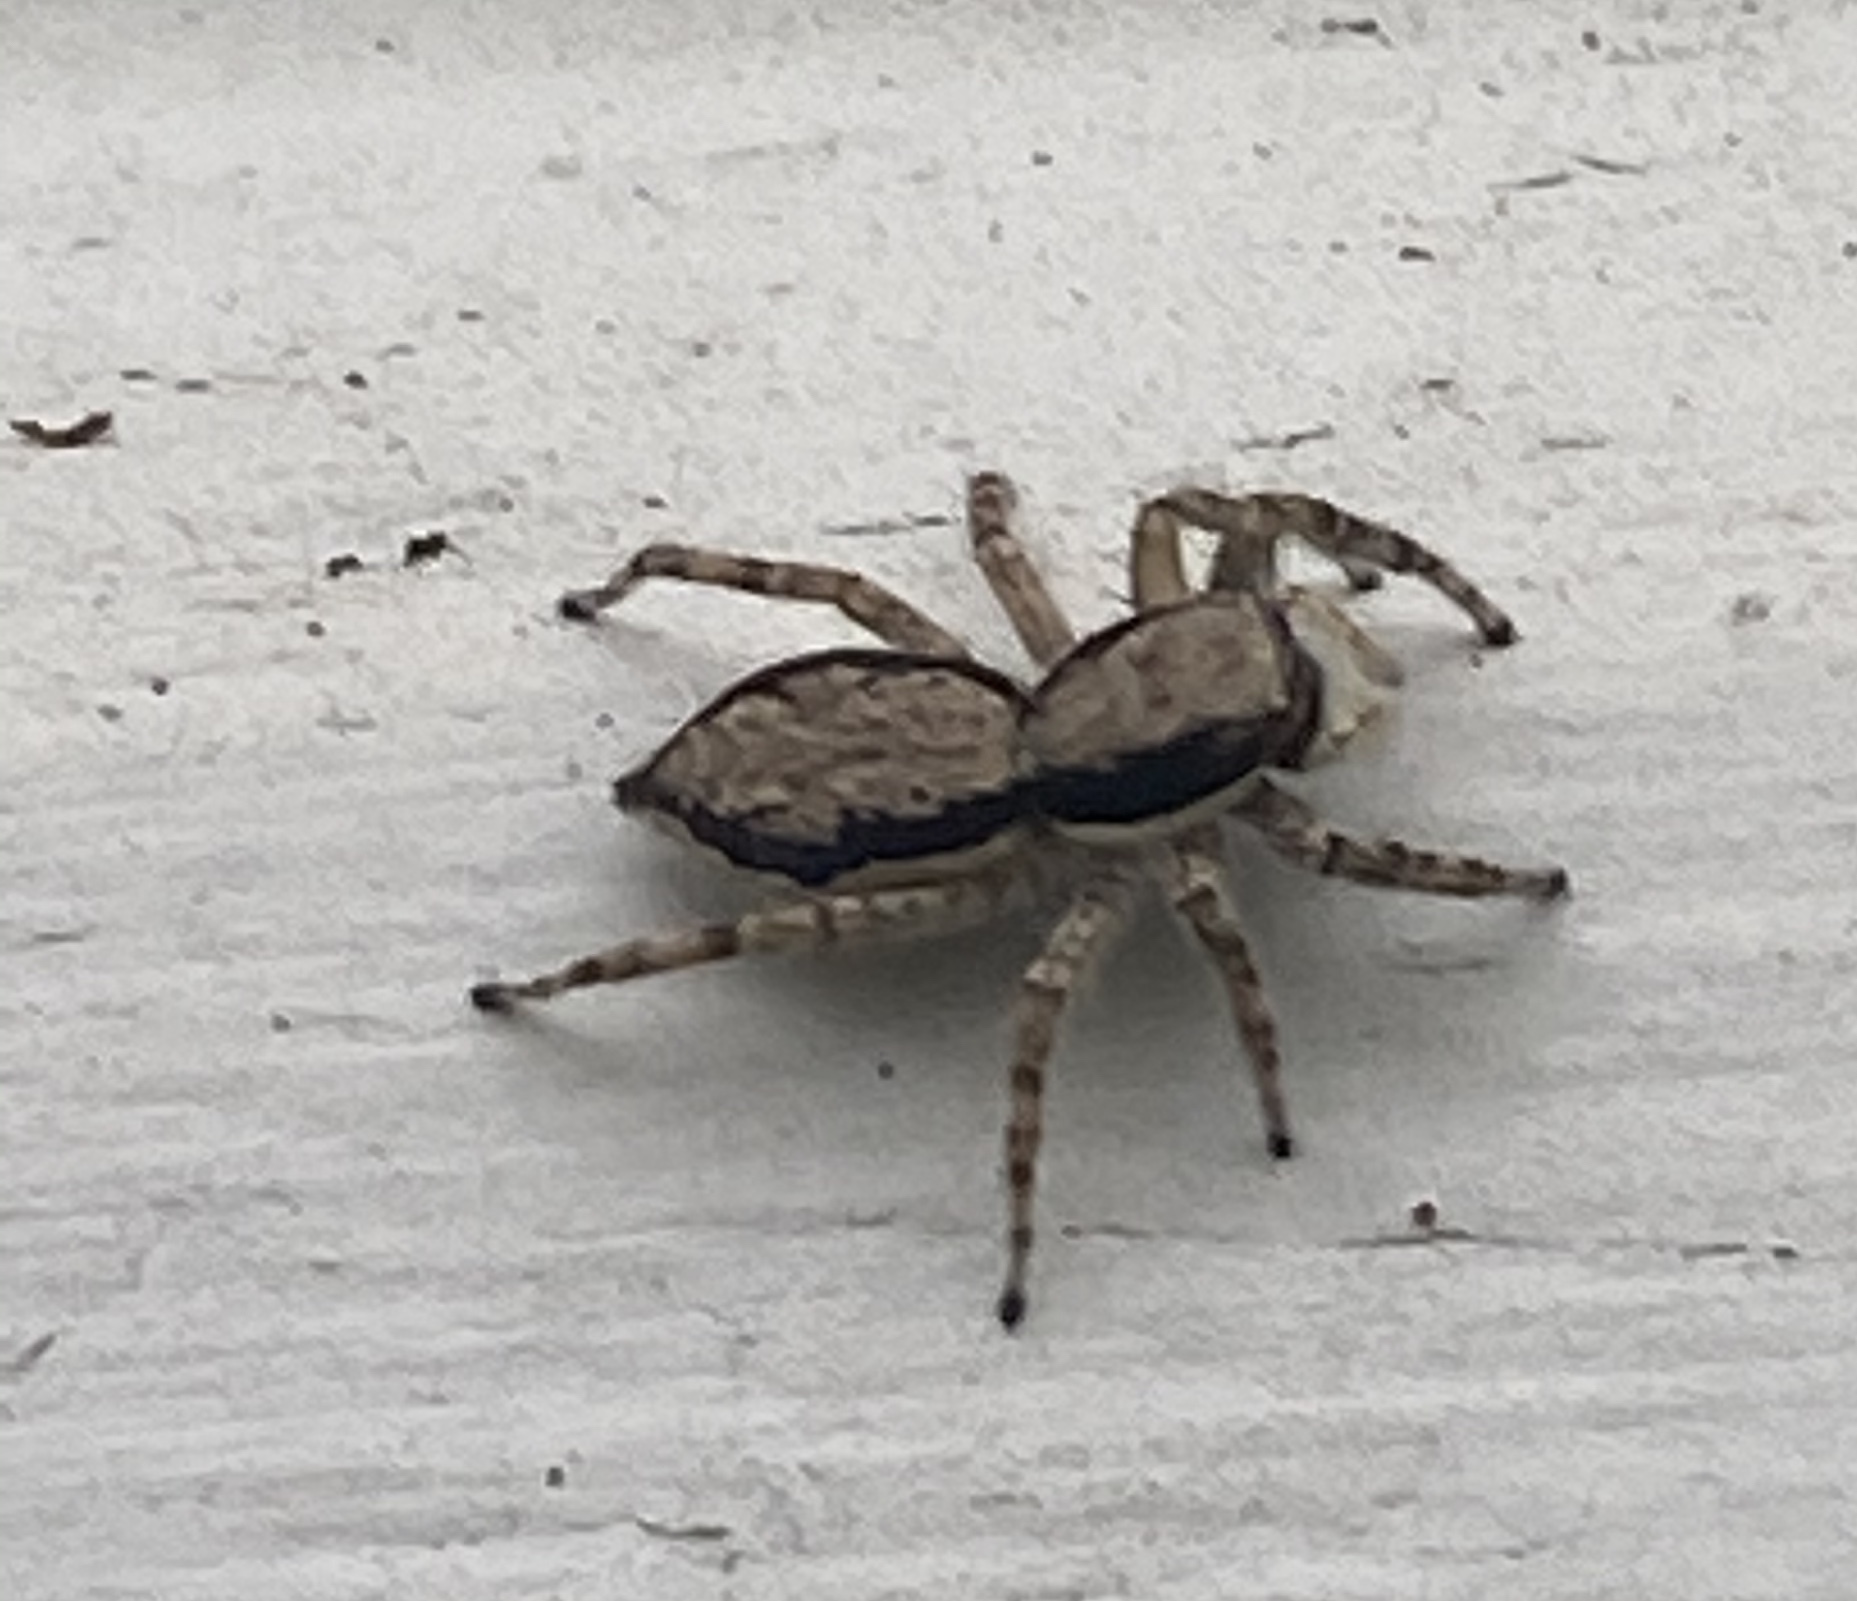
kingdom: Animalia
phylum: Arthropoda
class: Arachnida
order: Araneae
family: Salticidae
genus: Menemerus
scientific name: Menemerus bivittatus
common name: Gray wall jumper
